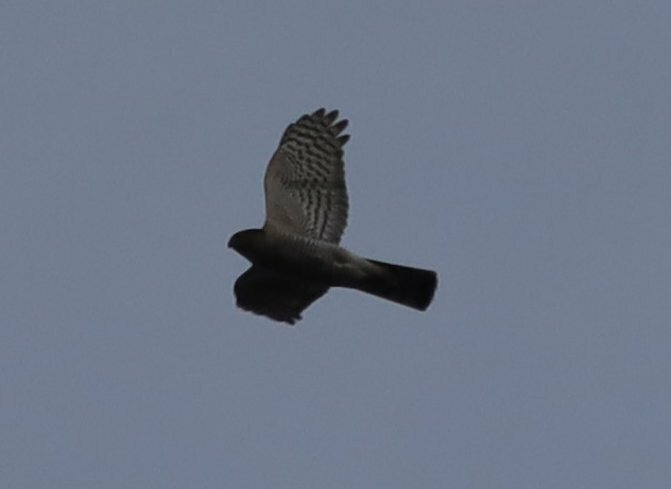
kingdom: Animalia
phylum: Chordata
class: Aves
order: Accipitriformes
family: Accipitridae
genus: Accipiter
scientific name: Accipiter nisus
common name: Eurasian sparrowhawk
